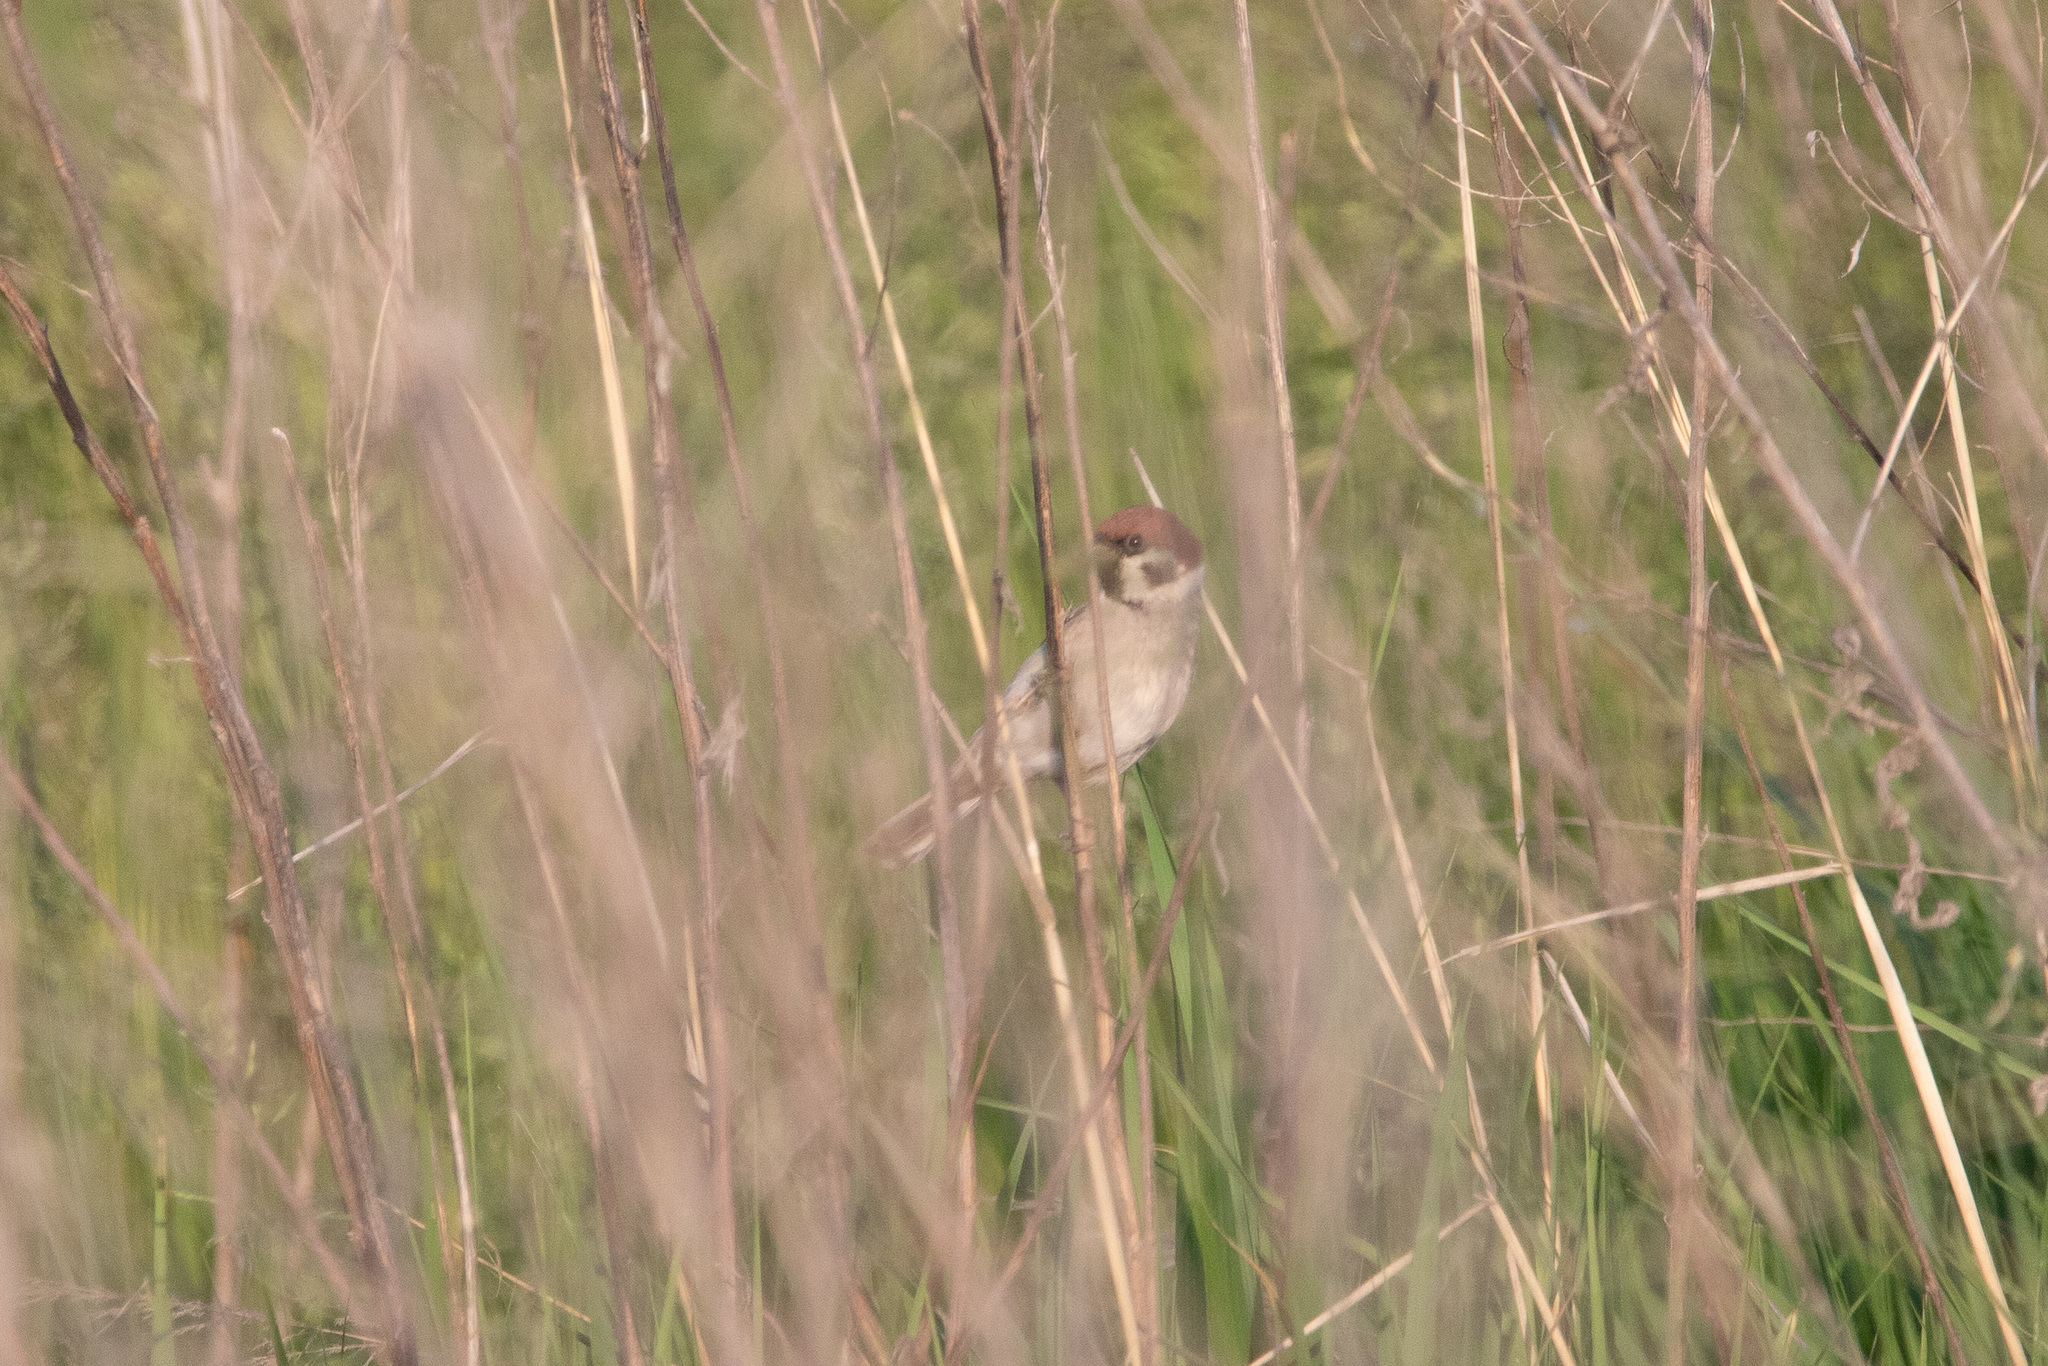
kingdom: Animalia
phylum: Chordata
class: Aves
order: Passeriformes
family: Passeridae
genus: Passer
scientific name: Passer montanus
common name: Eurasian tree sparrow
